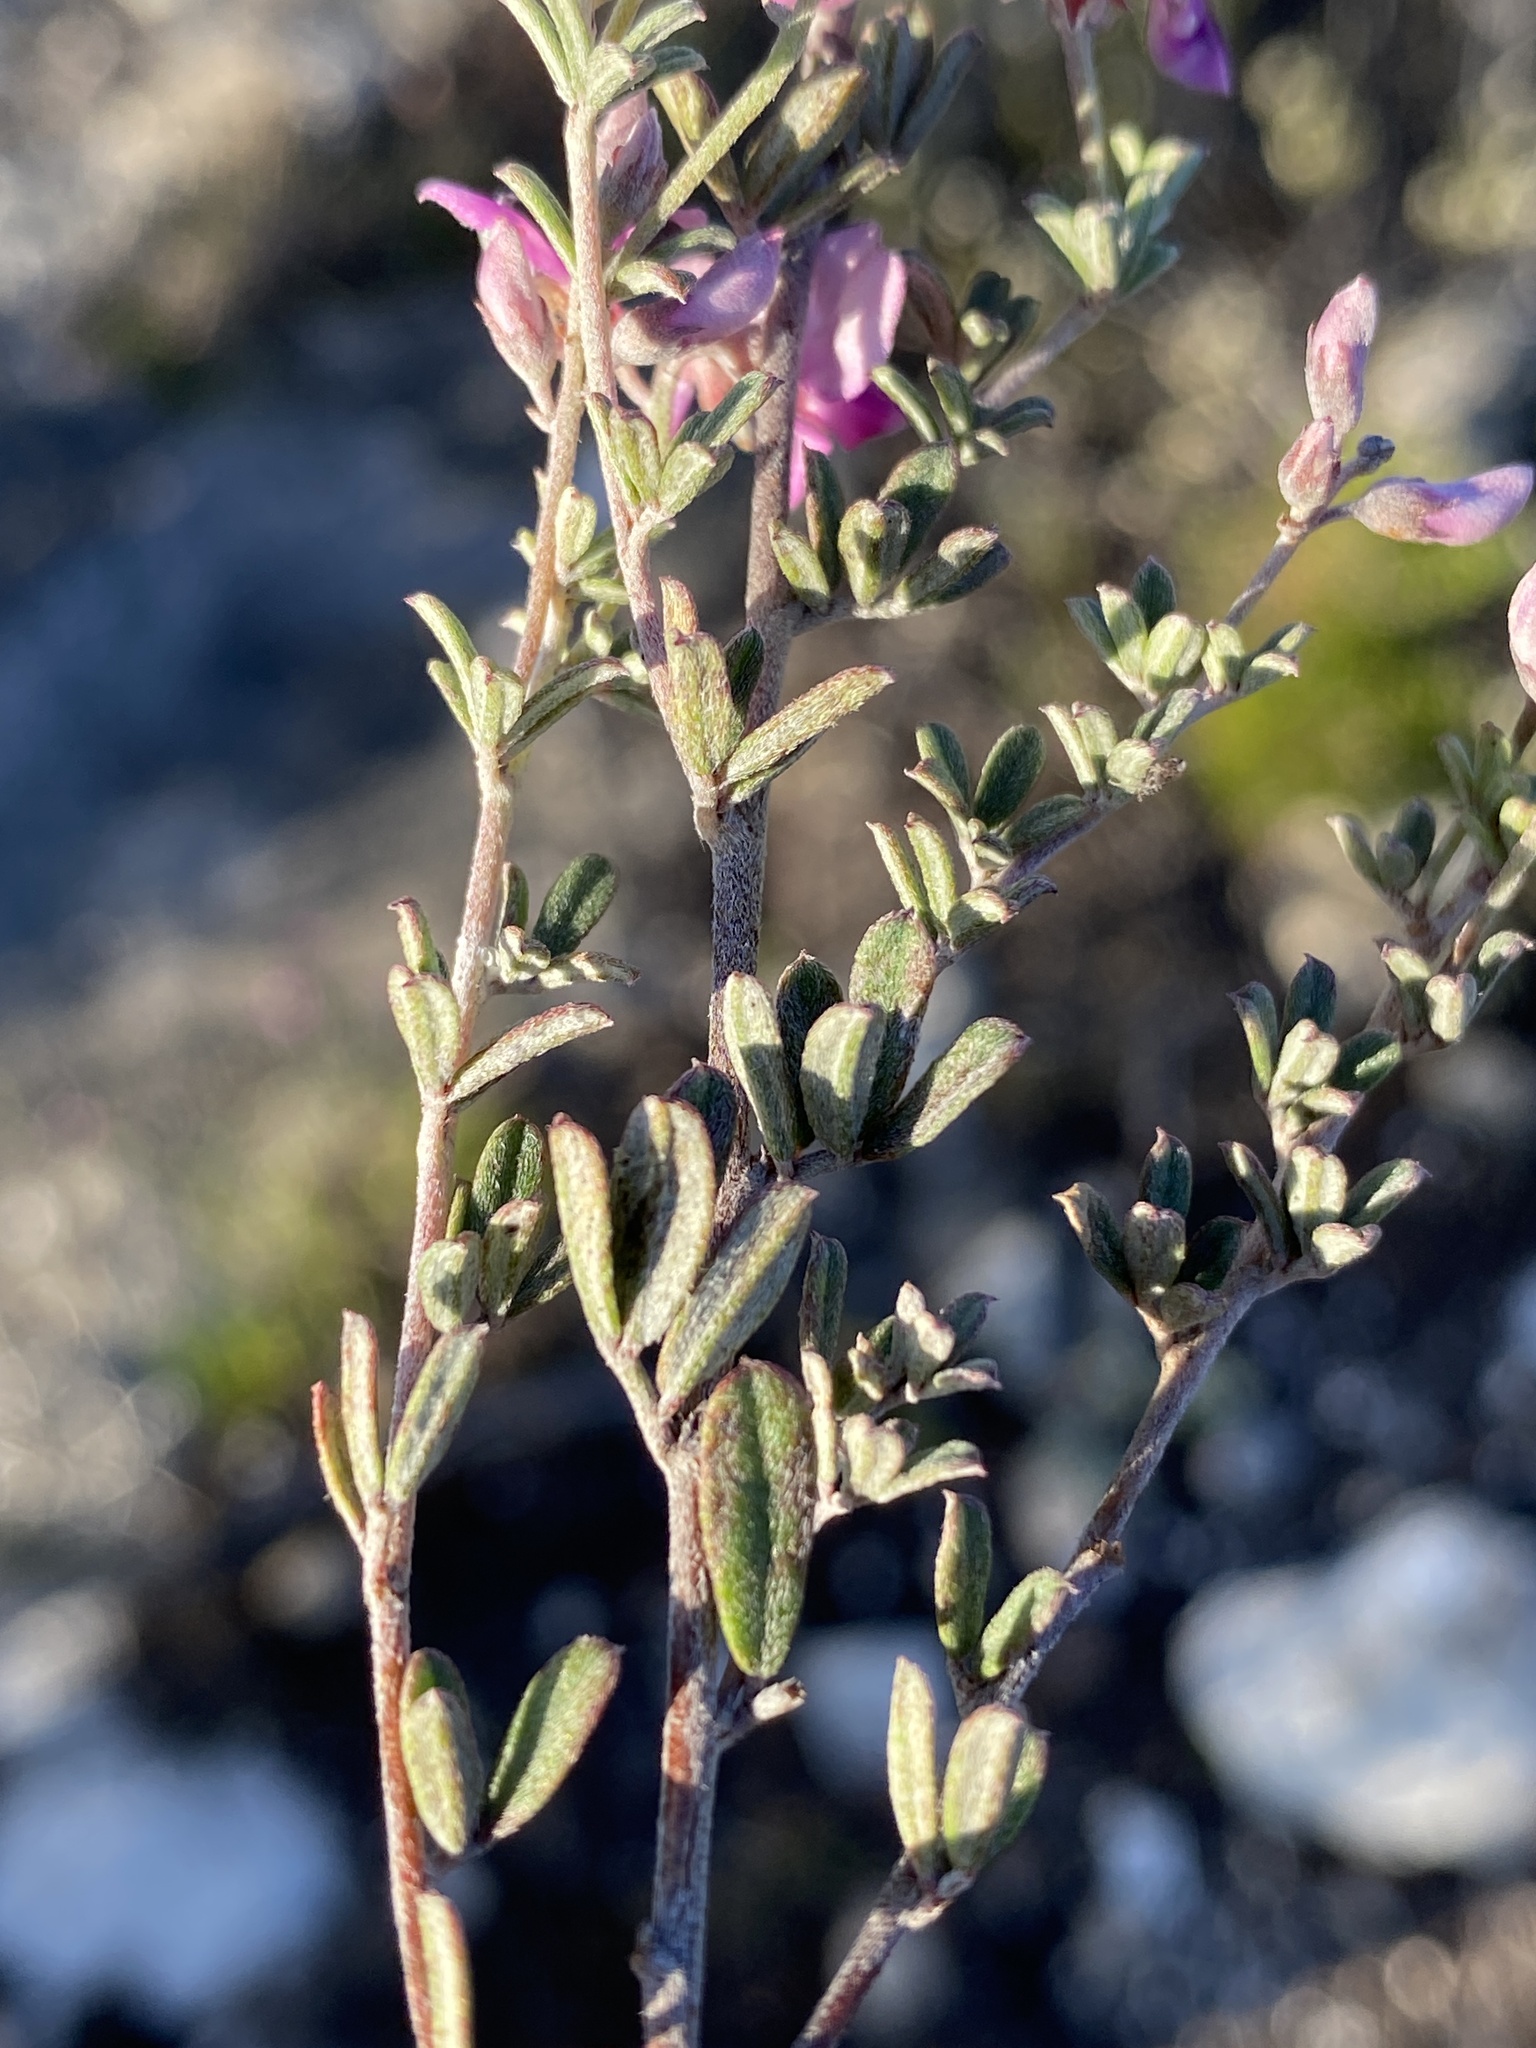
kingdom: Plantae
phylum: Tracheophyta
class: Magnoliopsida
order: Fabales
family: Fabaceae
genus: Indigofera
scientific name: Indigofera
